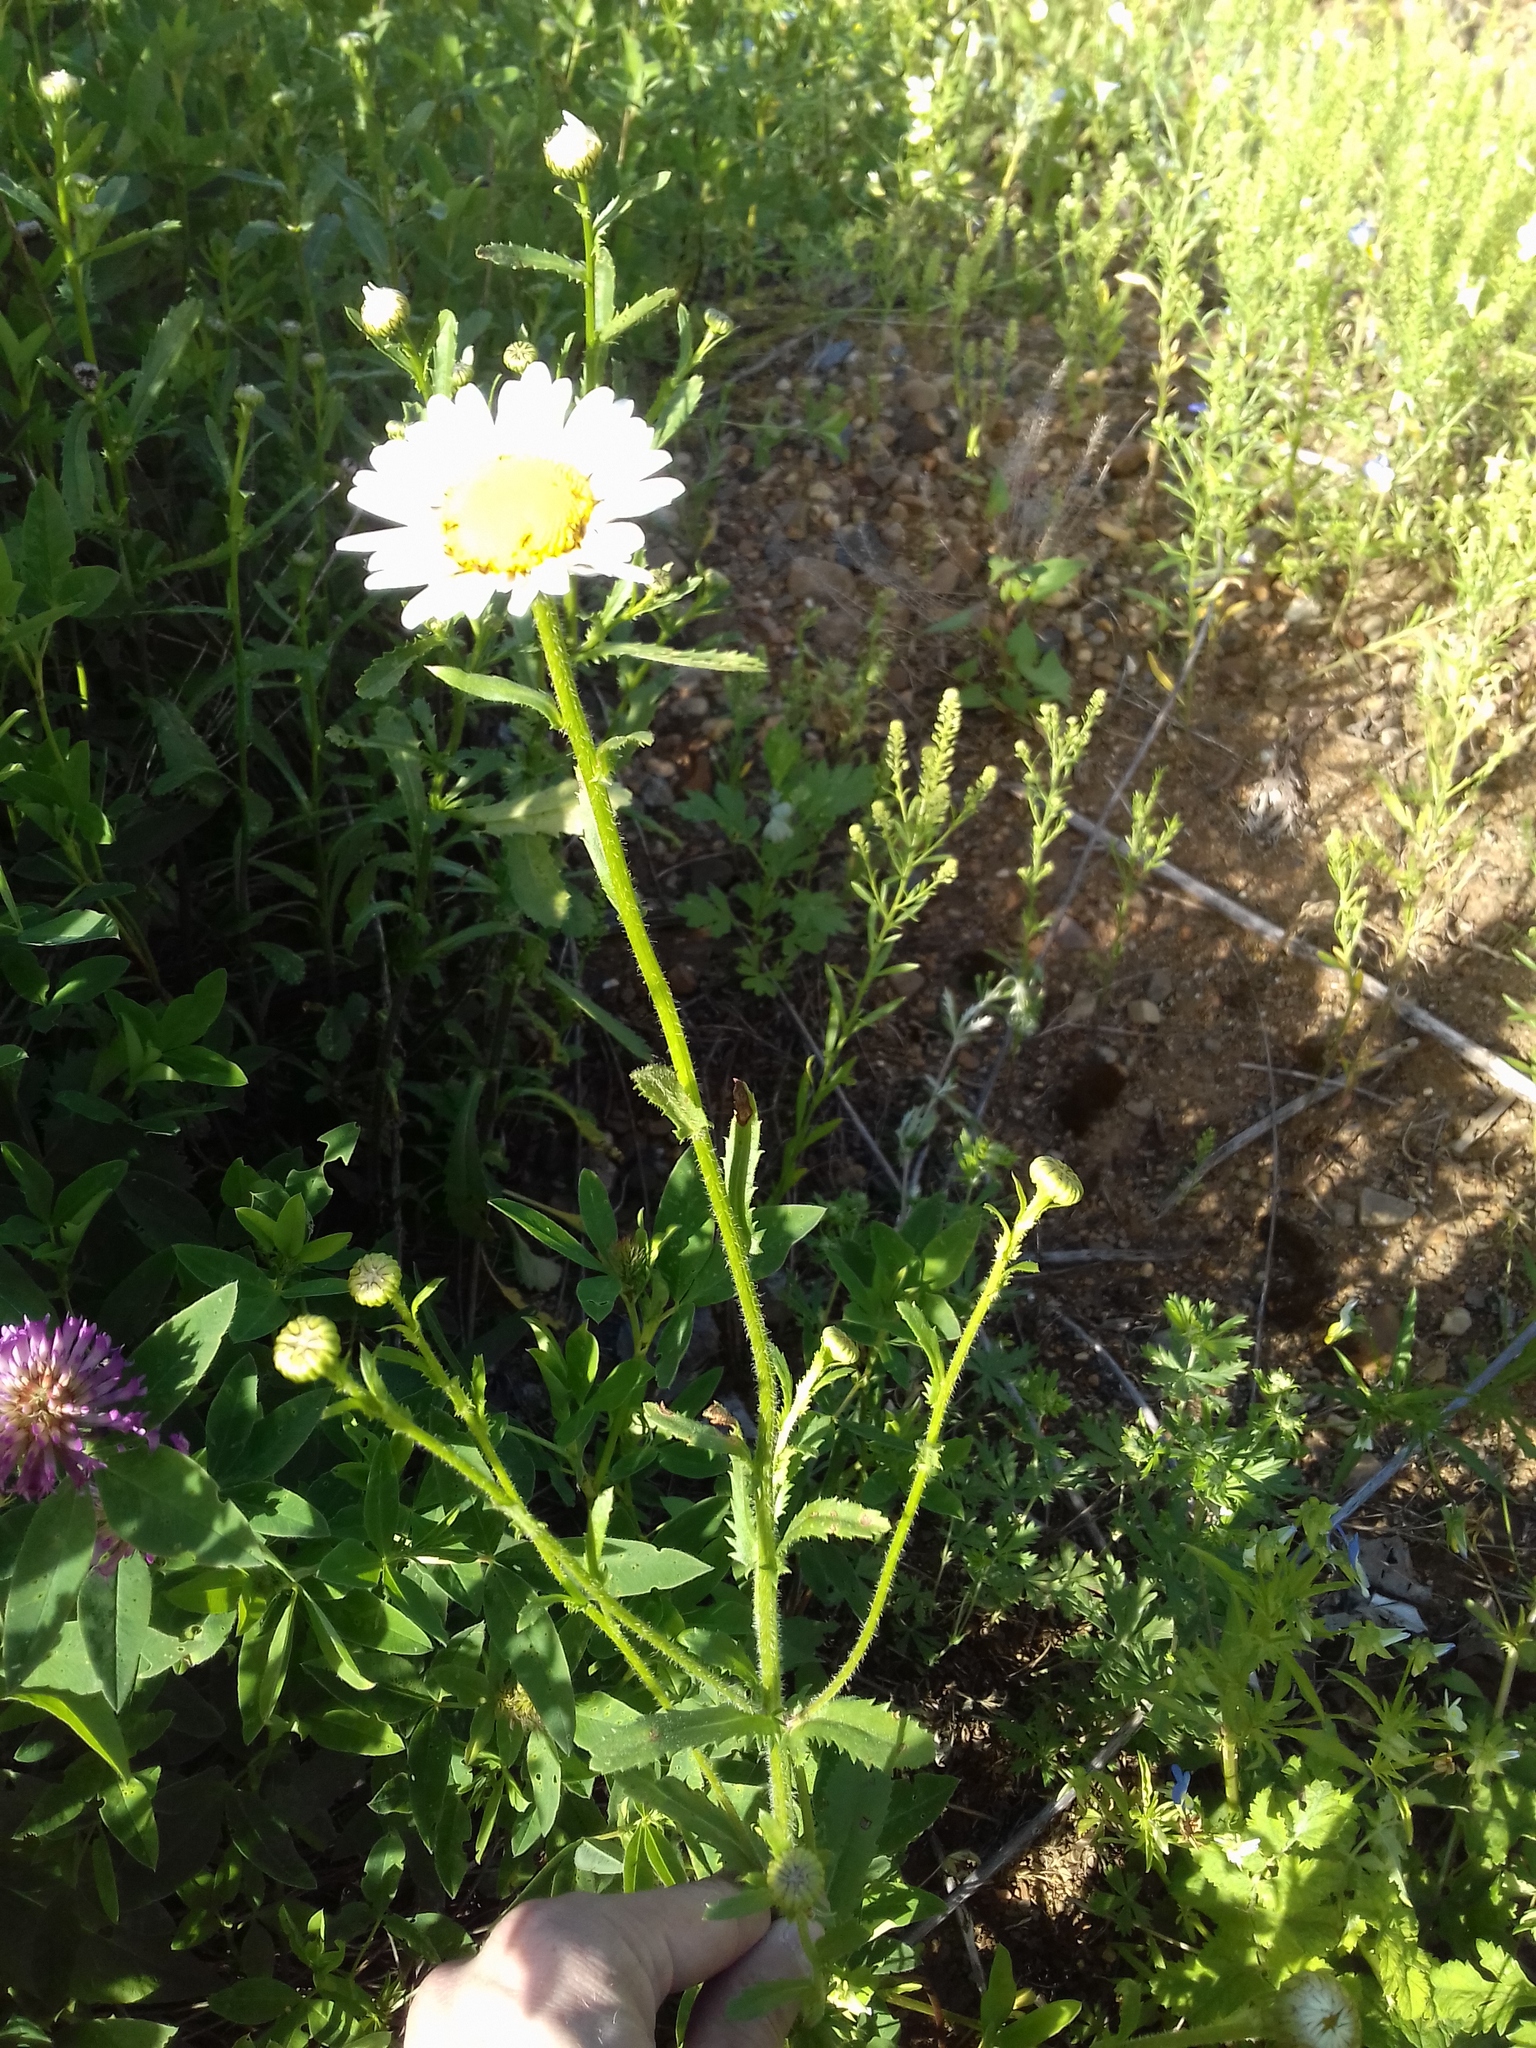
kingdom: Plantae
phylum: Tracheophyta
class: Magnoliopsida
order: Asterales
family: Asteraceae
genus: Leucanthemum
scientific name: Leucanthemum ircutianum
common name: Daisy
